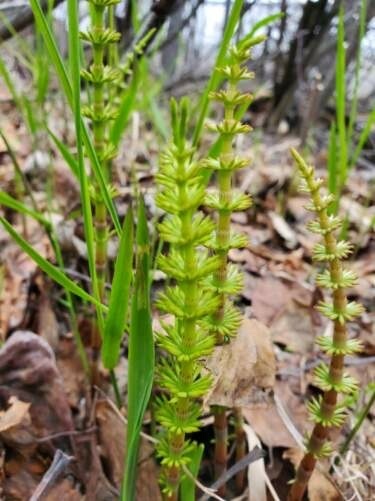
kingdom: Plantae
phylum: Tracheophyta
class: Polypodiopsida
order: Equisetales
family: Equisetaceae
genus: Equisetum
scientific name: Equisetum arvense
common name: Field horsetail
